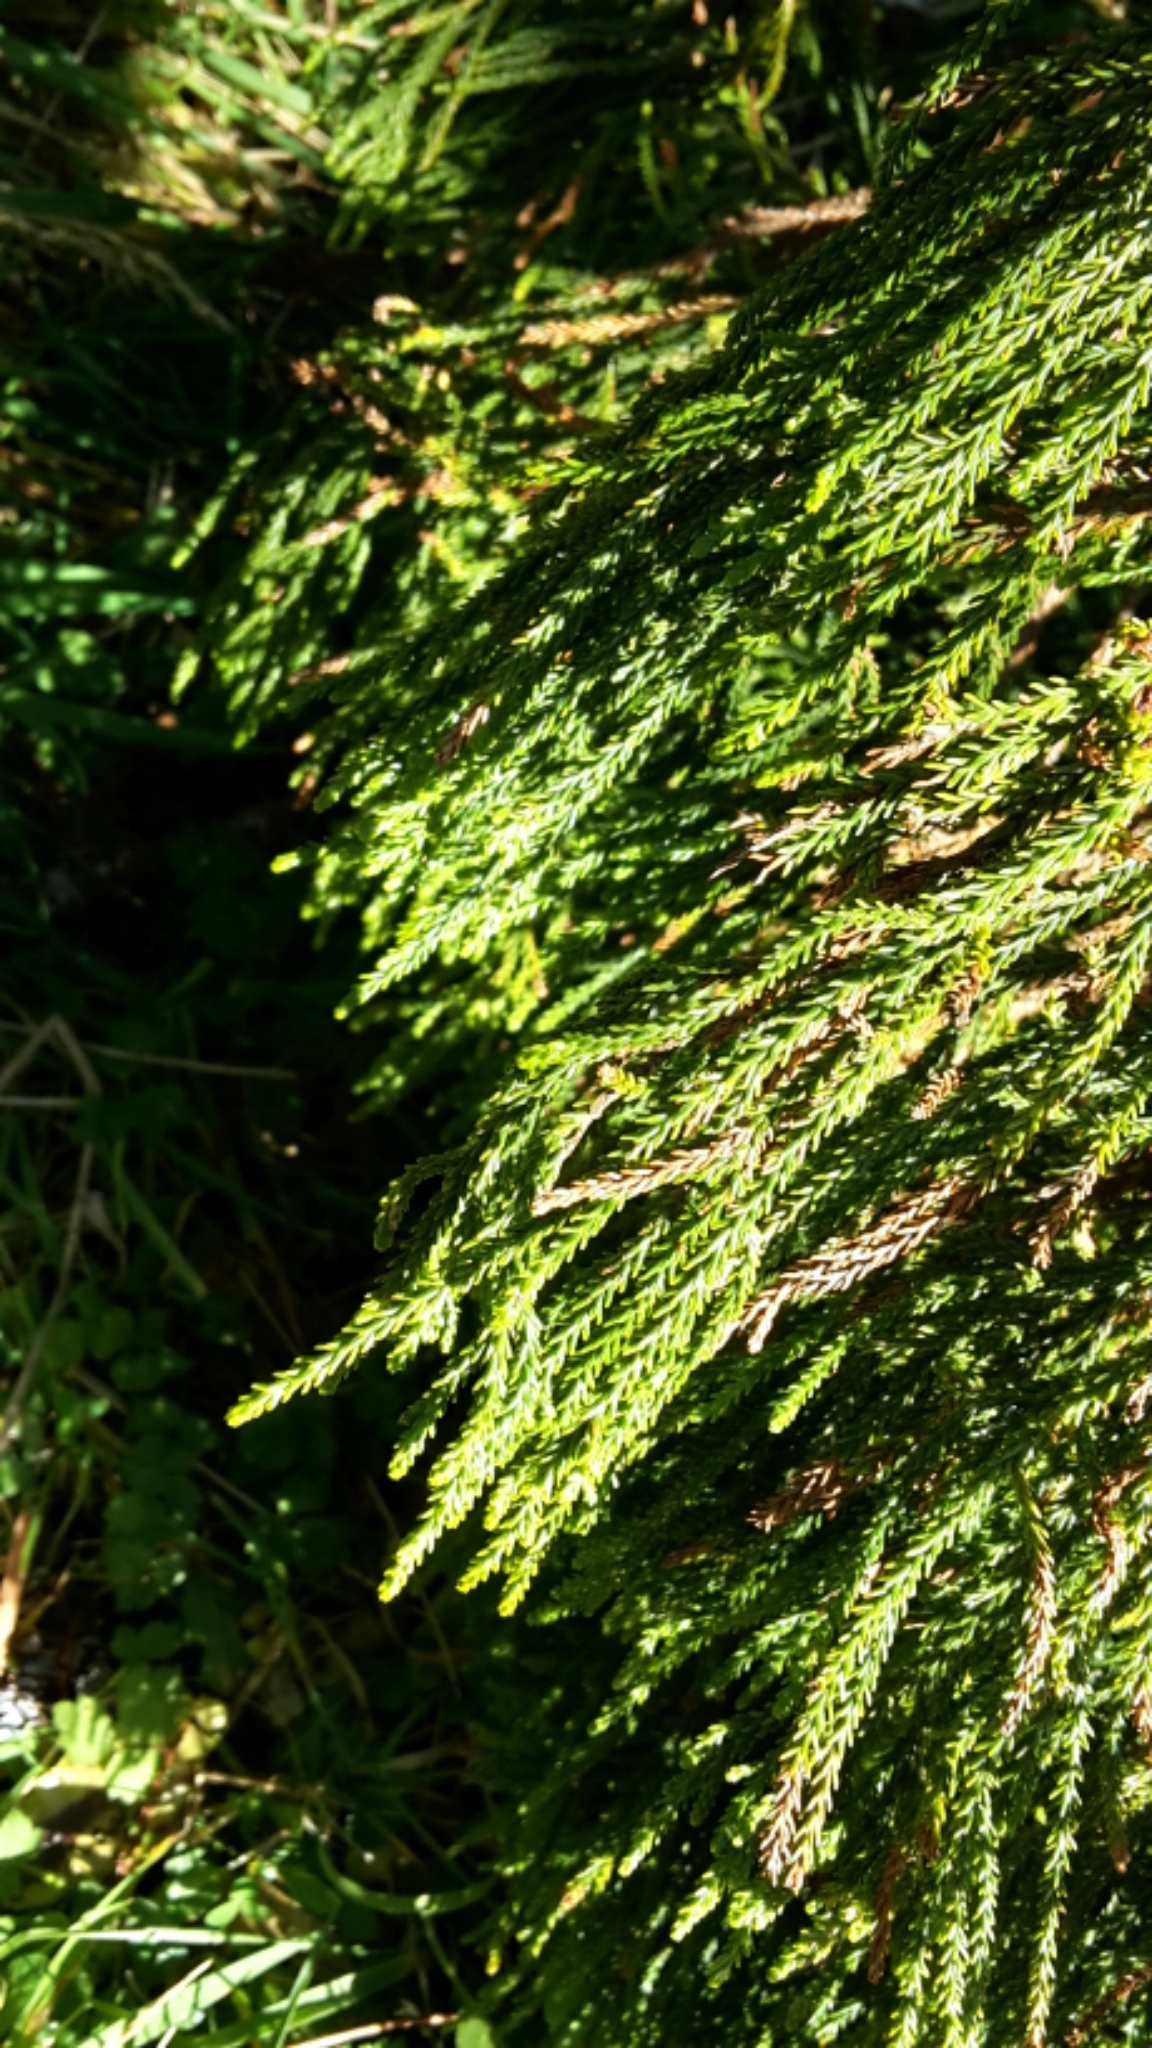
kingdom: Plantae
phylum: Tracheophyta
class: Pinopsida
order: Pinales
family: Podocarpaceae
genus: Dacrydium
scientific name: Dacrydium cupressinum
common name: Red pine
